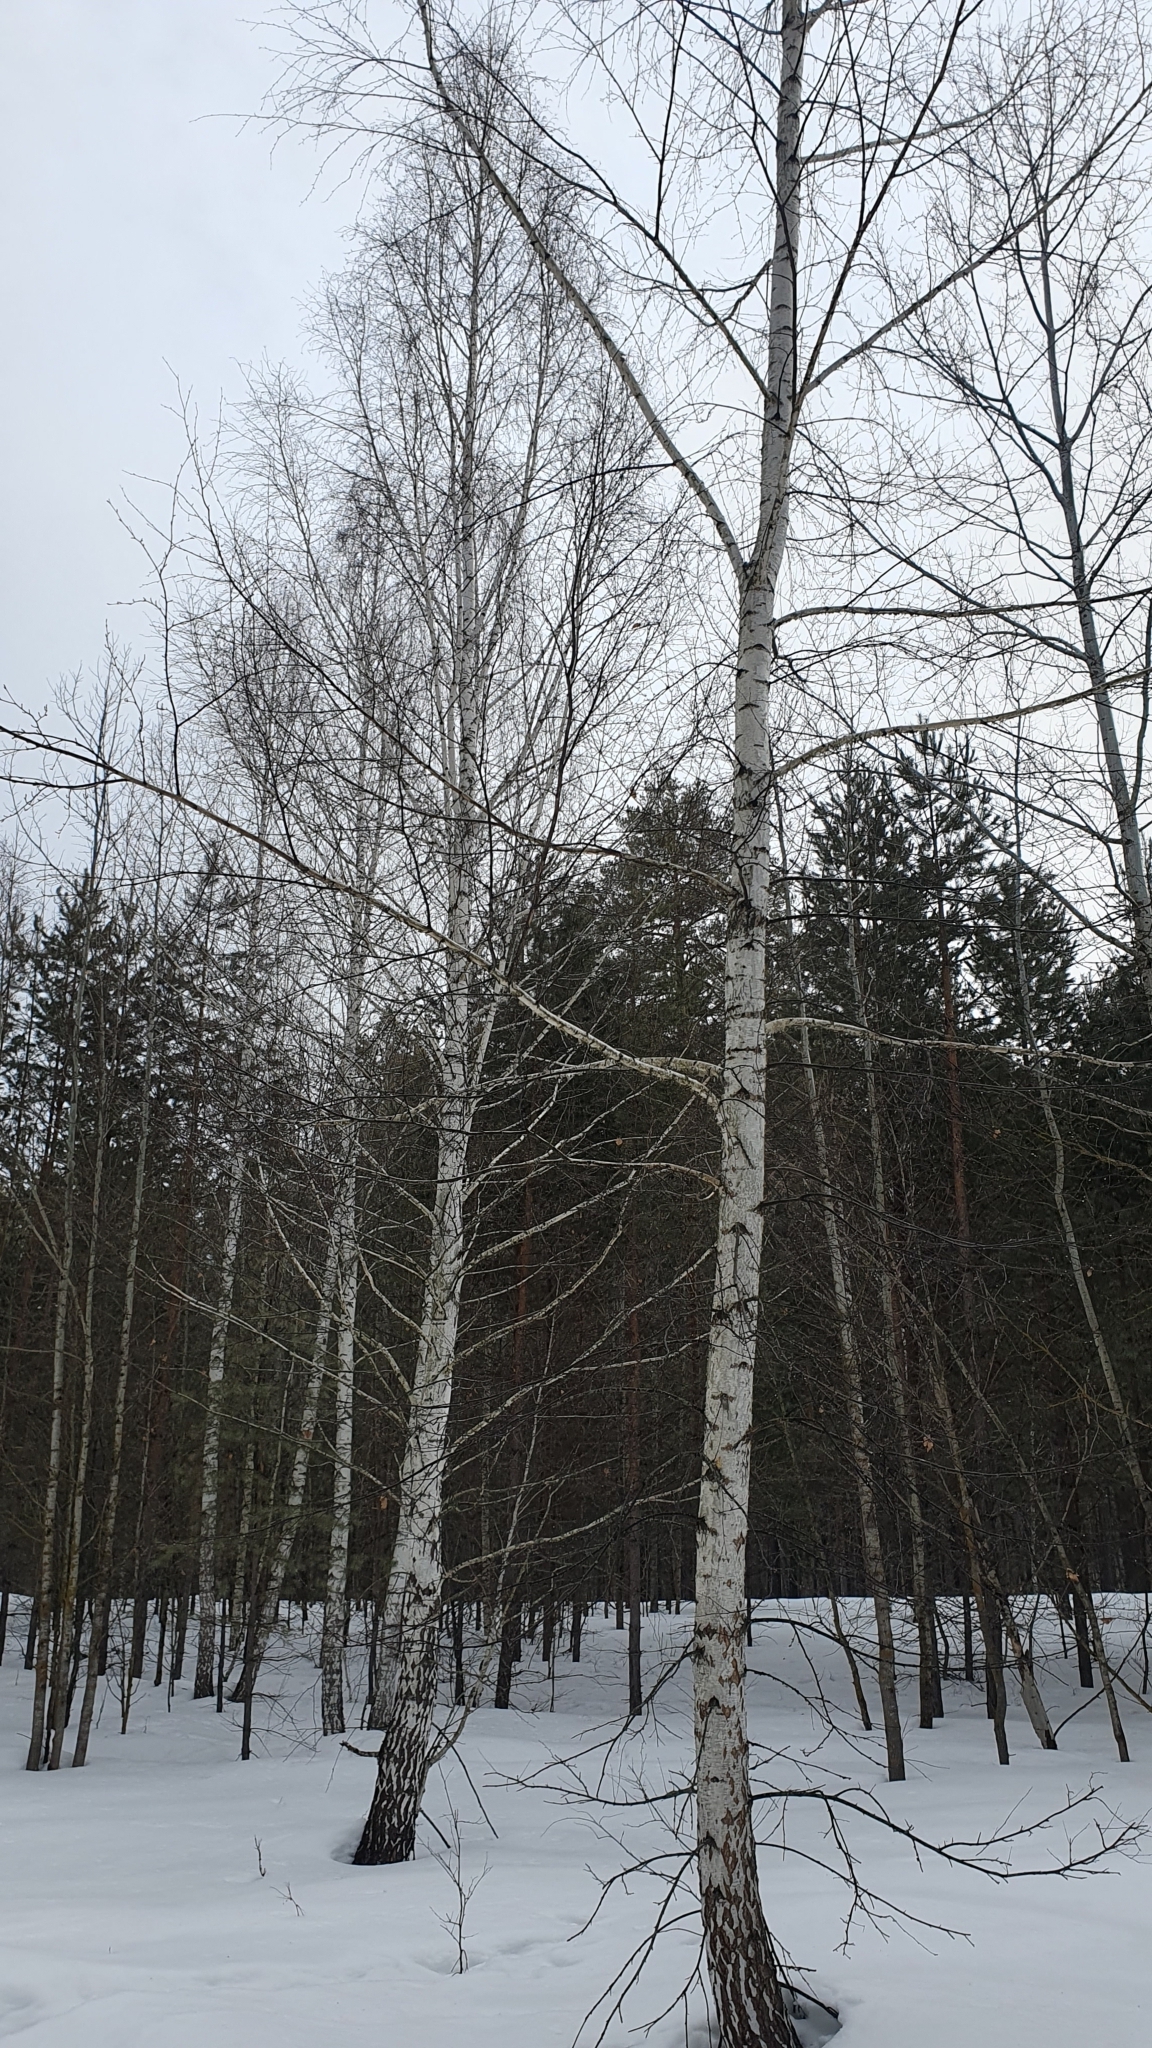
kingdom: Plantae
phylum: Tracheophyta
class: Magnoliopsida
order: Fagales
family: Betulaceae
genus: Betula
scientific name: Betula pendula
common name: Silver birch
